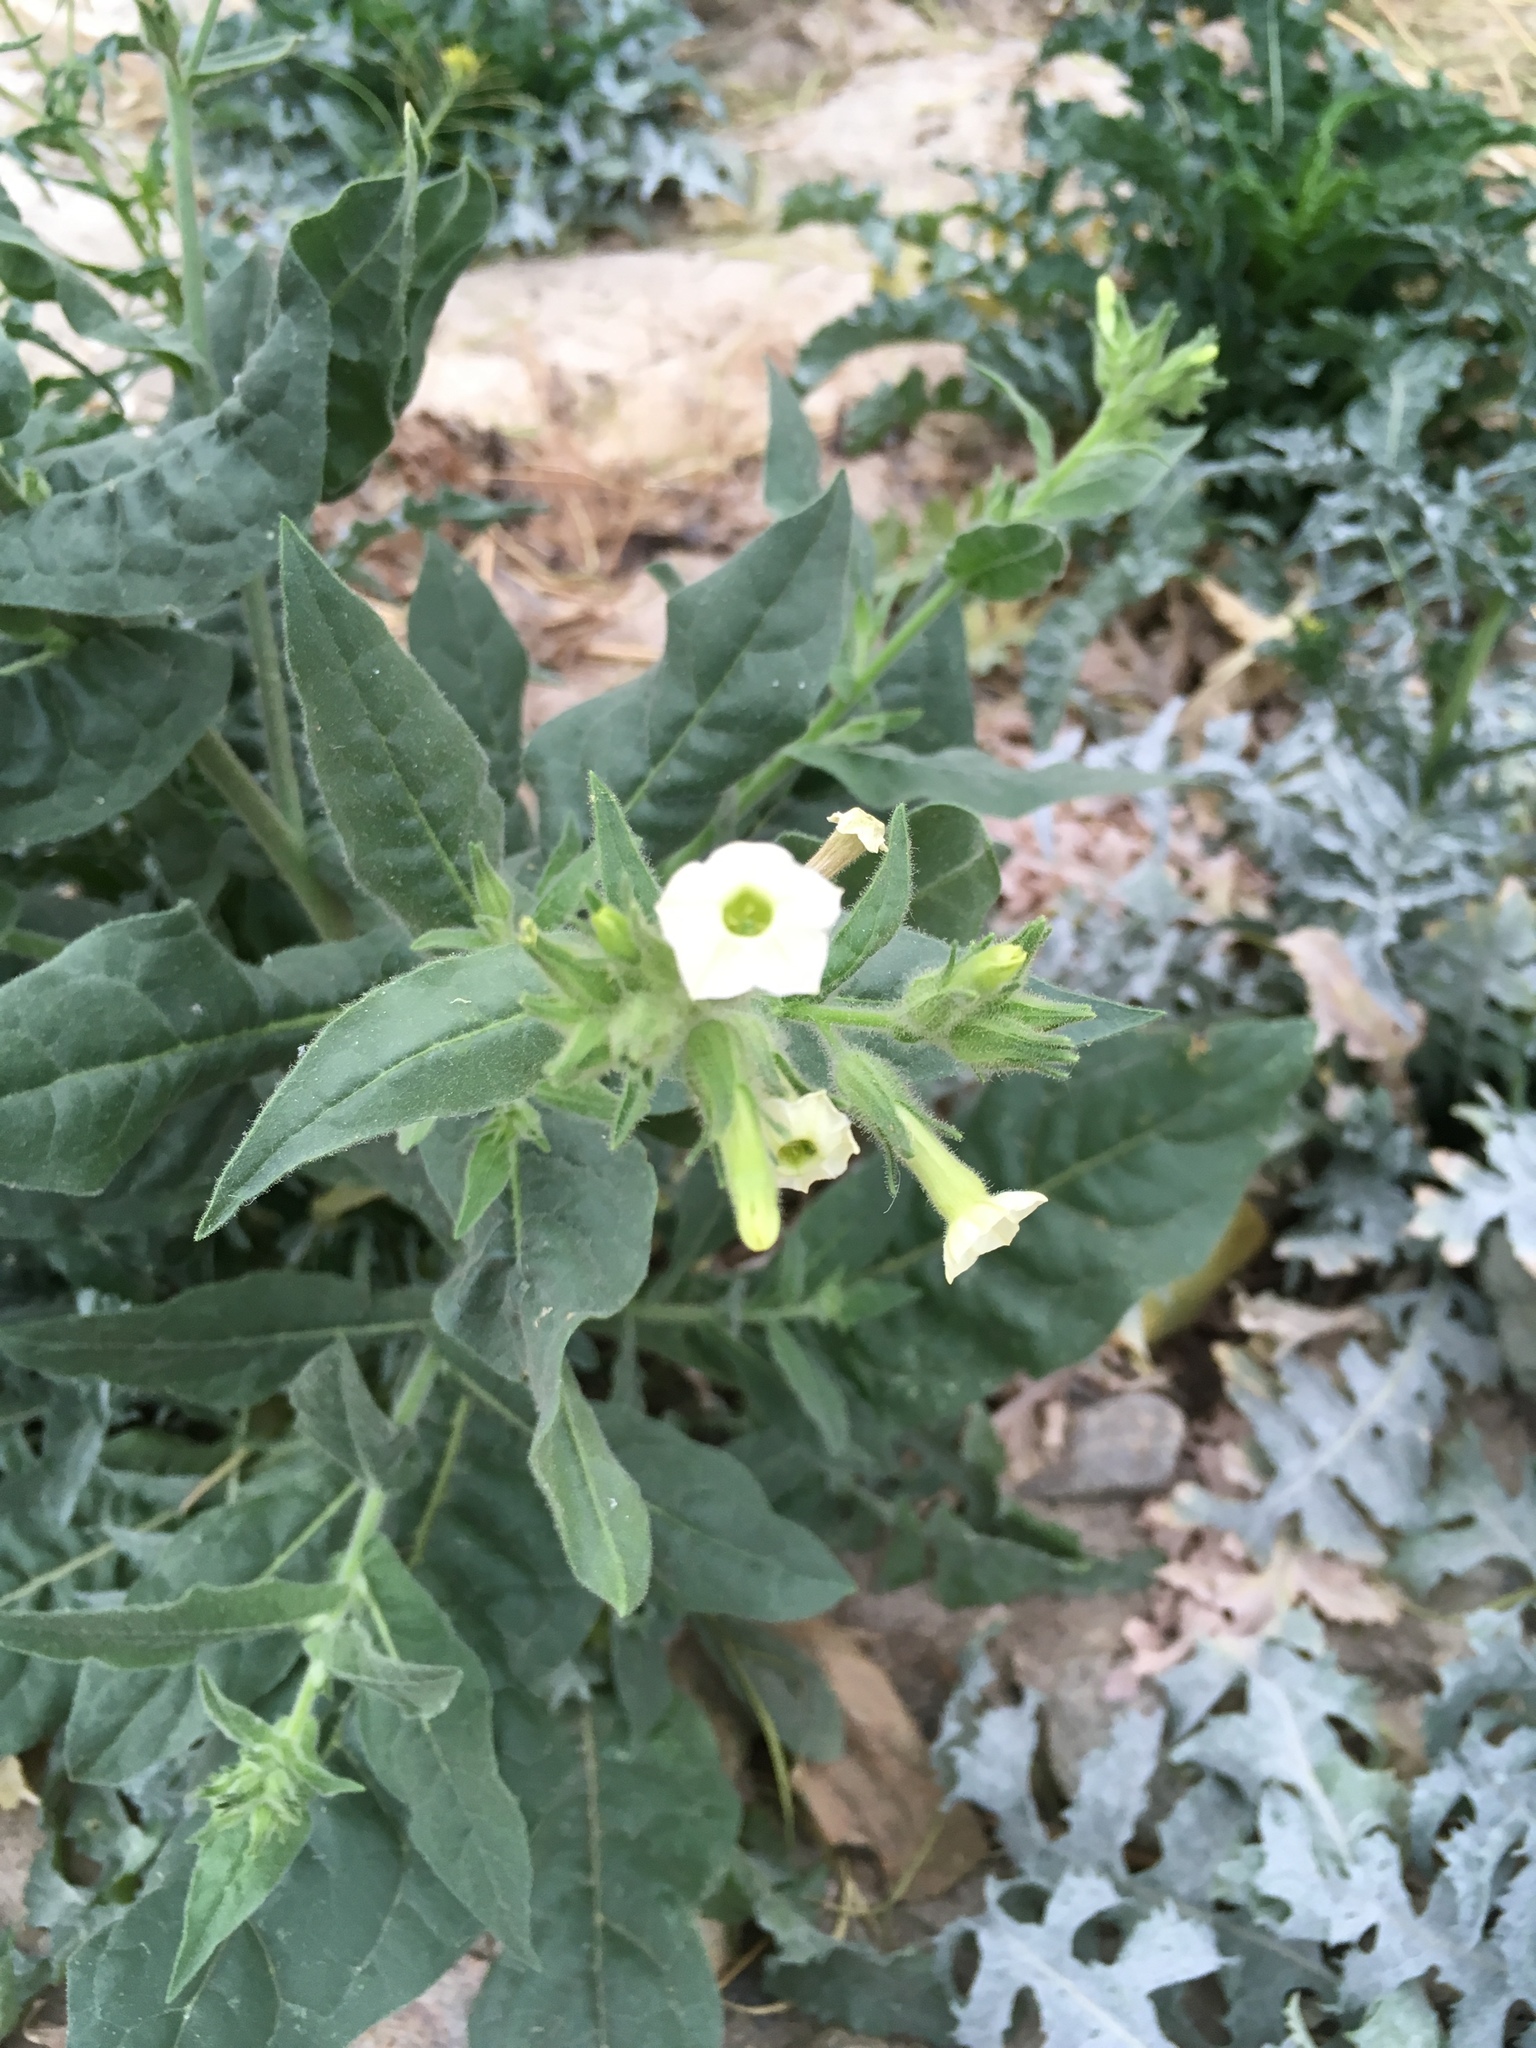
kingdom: Plantae
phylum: Tracheophyta
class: Magnoliopsida
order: Solanales
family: Solanaceae
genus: Nicotiana
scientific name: Nicotiana obtusifolia
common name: Desert tobacco
